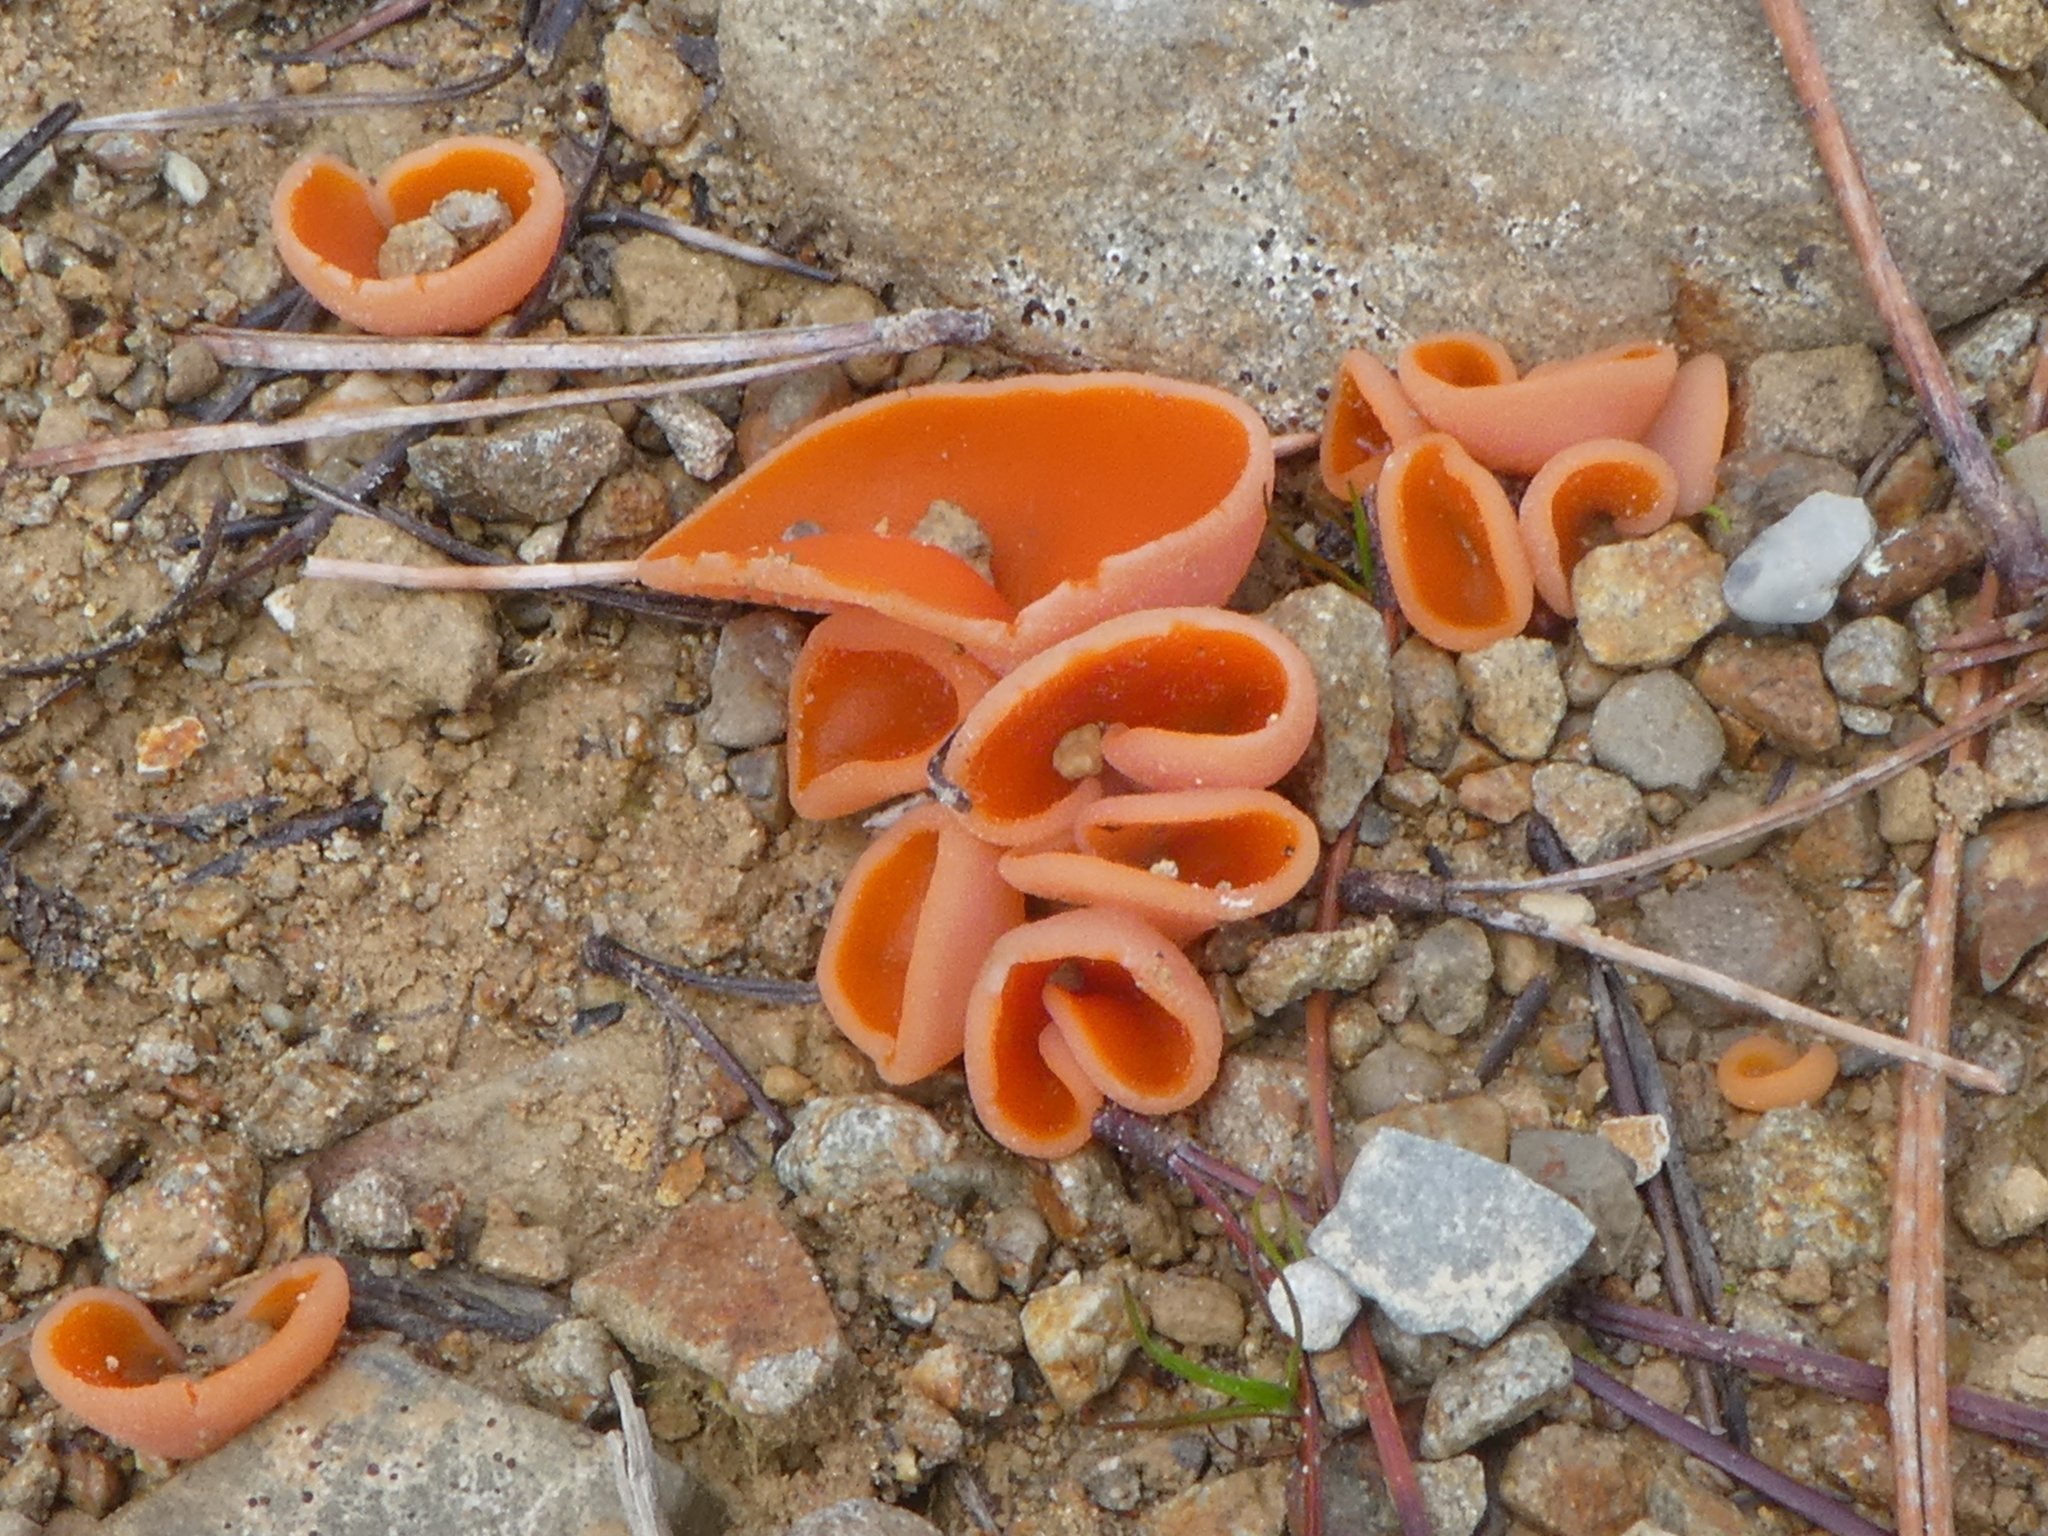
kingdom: Fungi
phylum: Ascomycota
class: Pezizomycetes
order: Pezizales
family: Pyronemataceae
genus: Aleuria
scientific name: Aleuria aurantia
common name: Orange peel fungus
